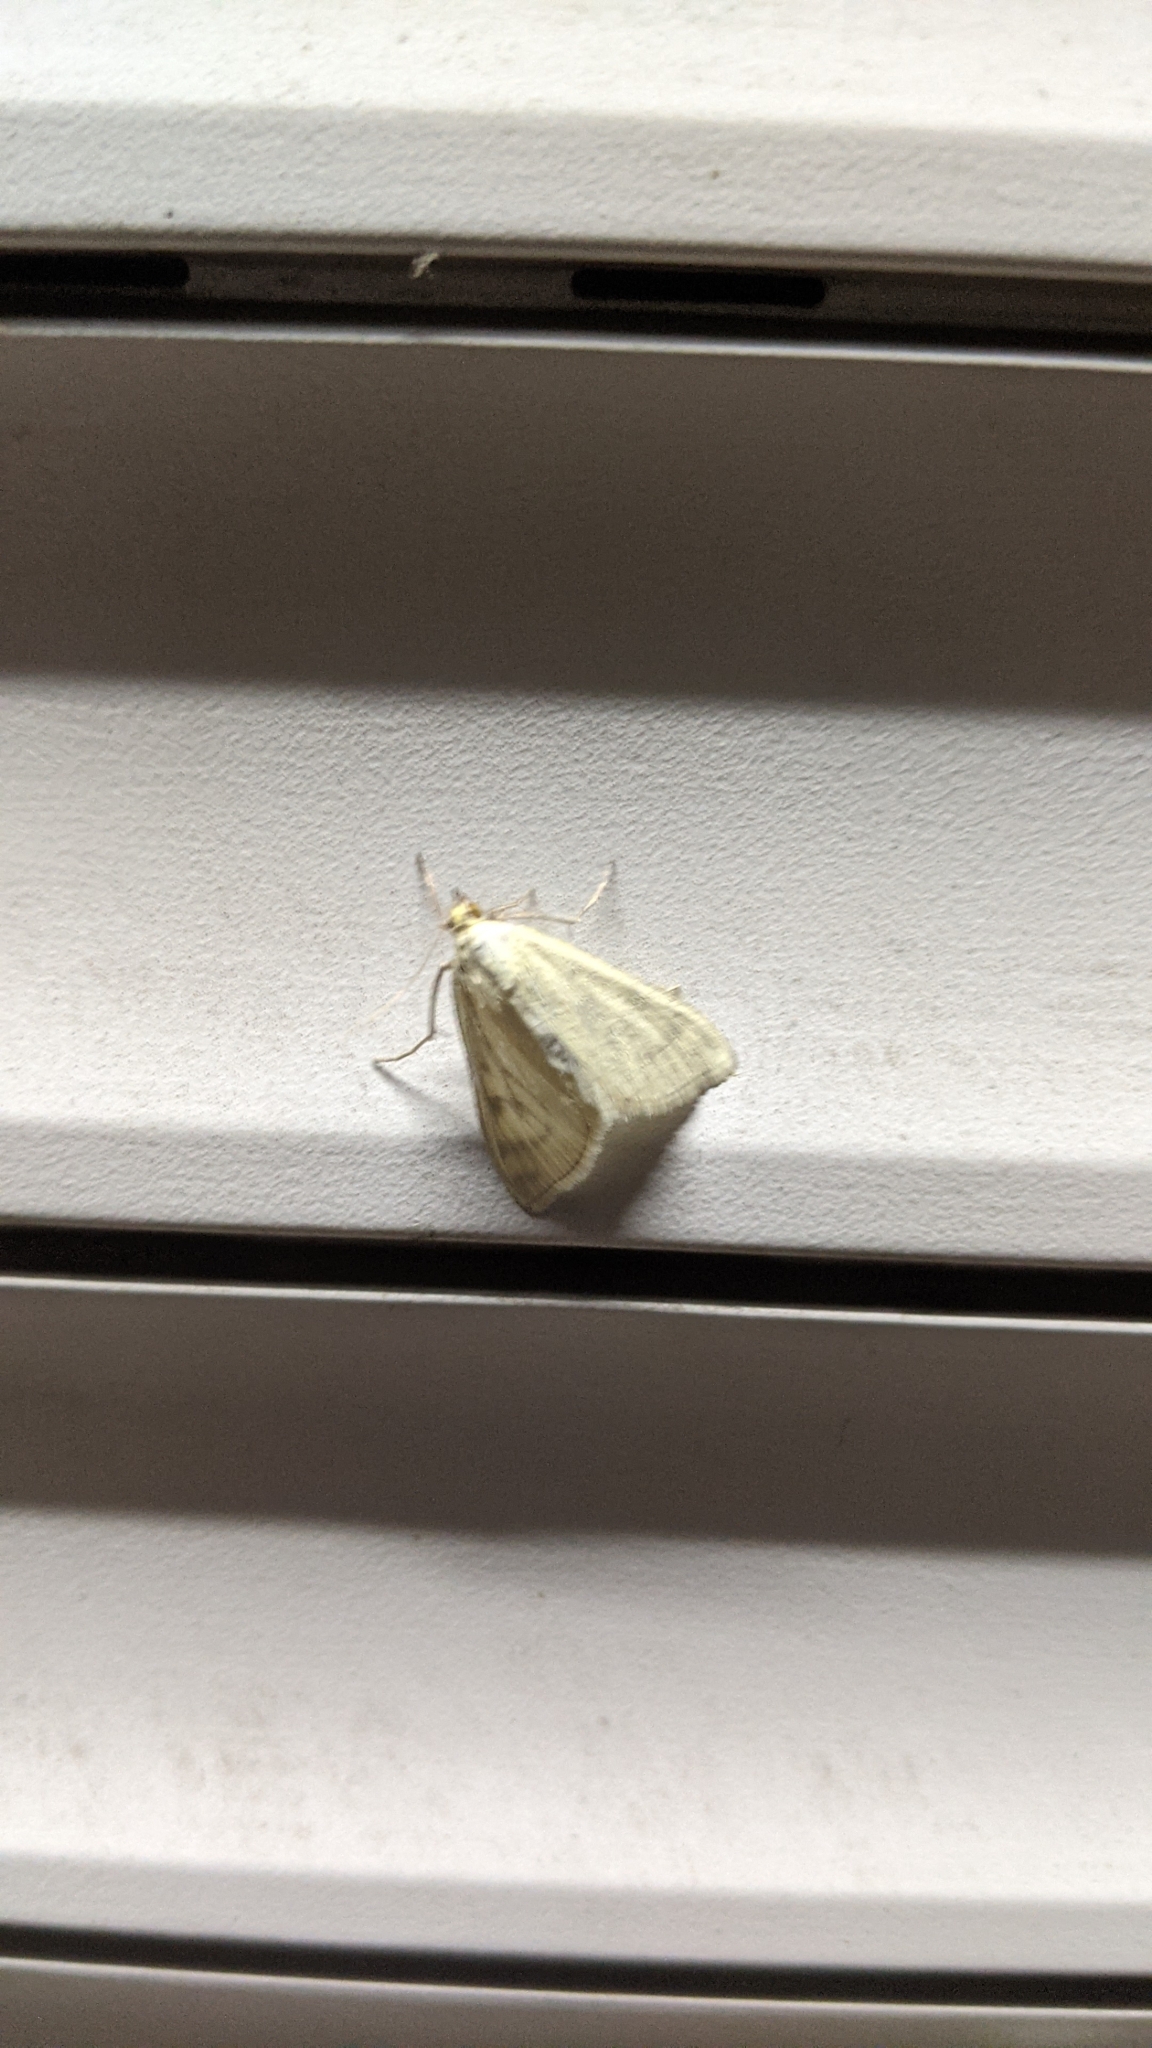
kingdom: Animalia
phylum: Arthropoda
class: Insecta
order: Lepidoptera
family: Crambidae
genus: Sitochroa
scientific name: Sitochroa palealis
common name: Greenish-yellow sitochroa moth
